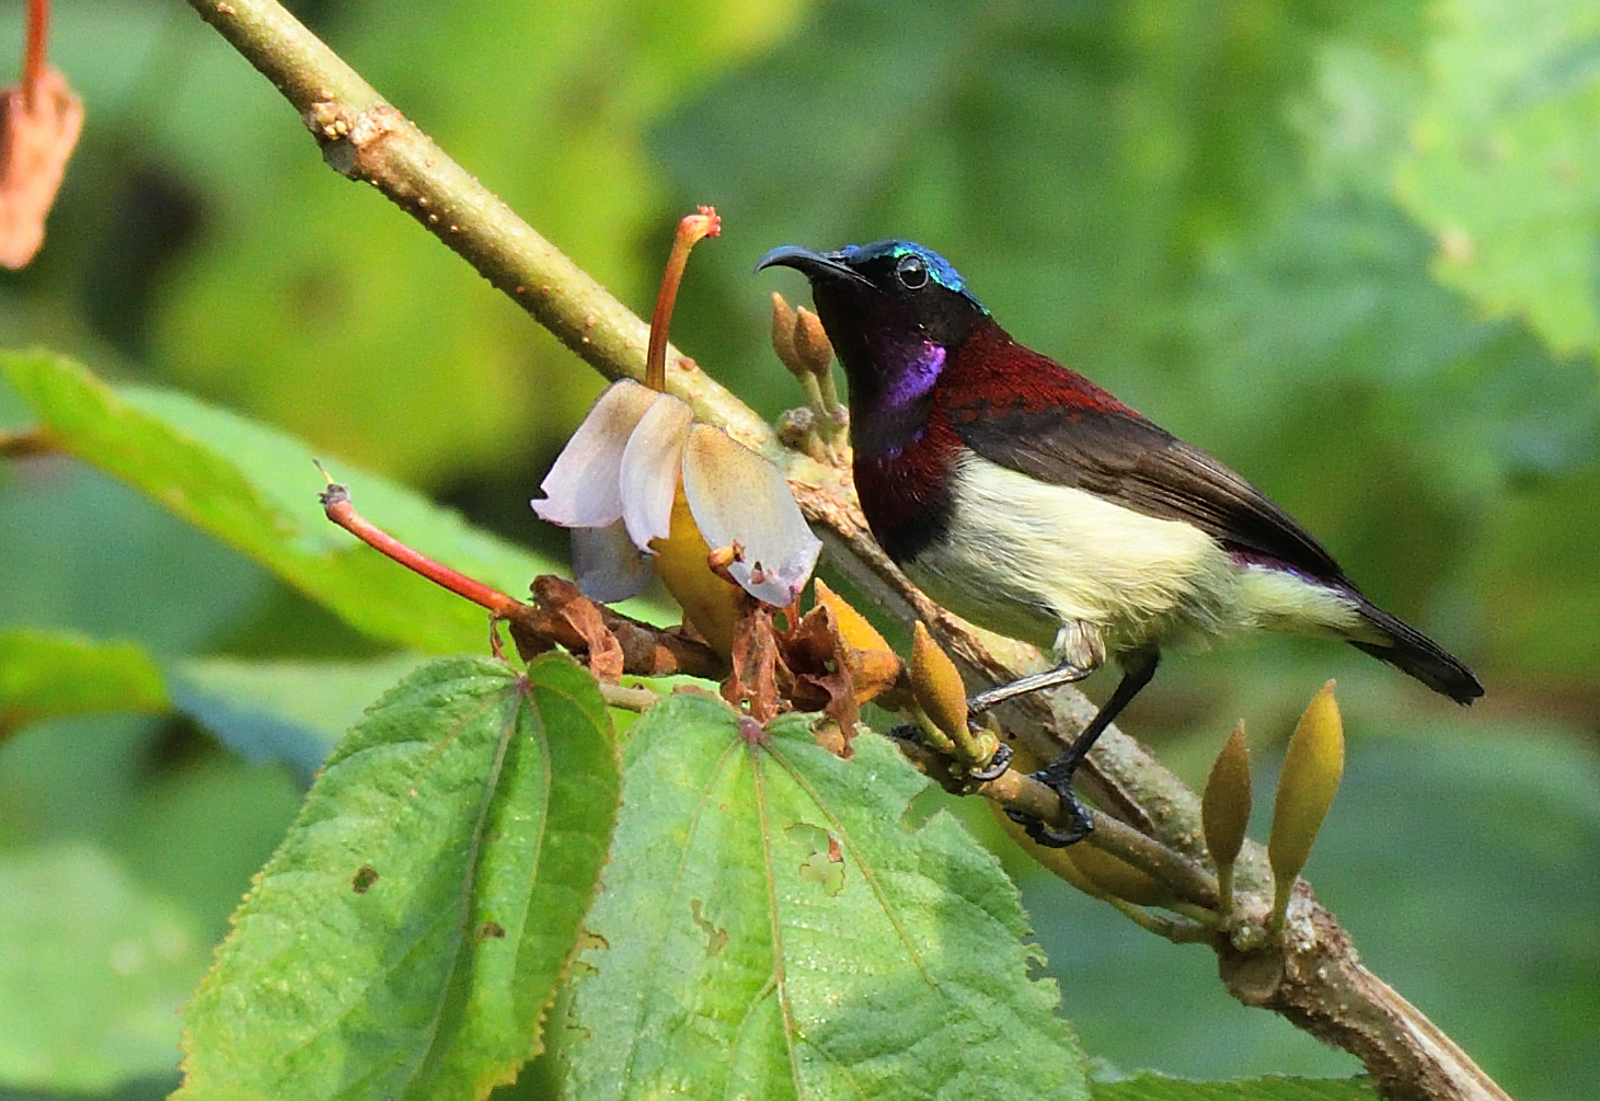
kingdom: Animalia
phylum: Chordata
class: Aves
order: Passeriformes
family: Nectariniidae
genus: Leptocoma
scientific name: Leptocoma minima
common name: Crimson-backed sunbird
